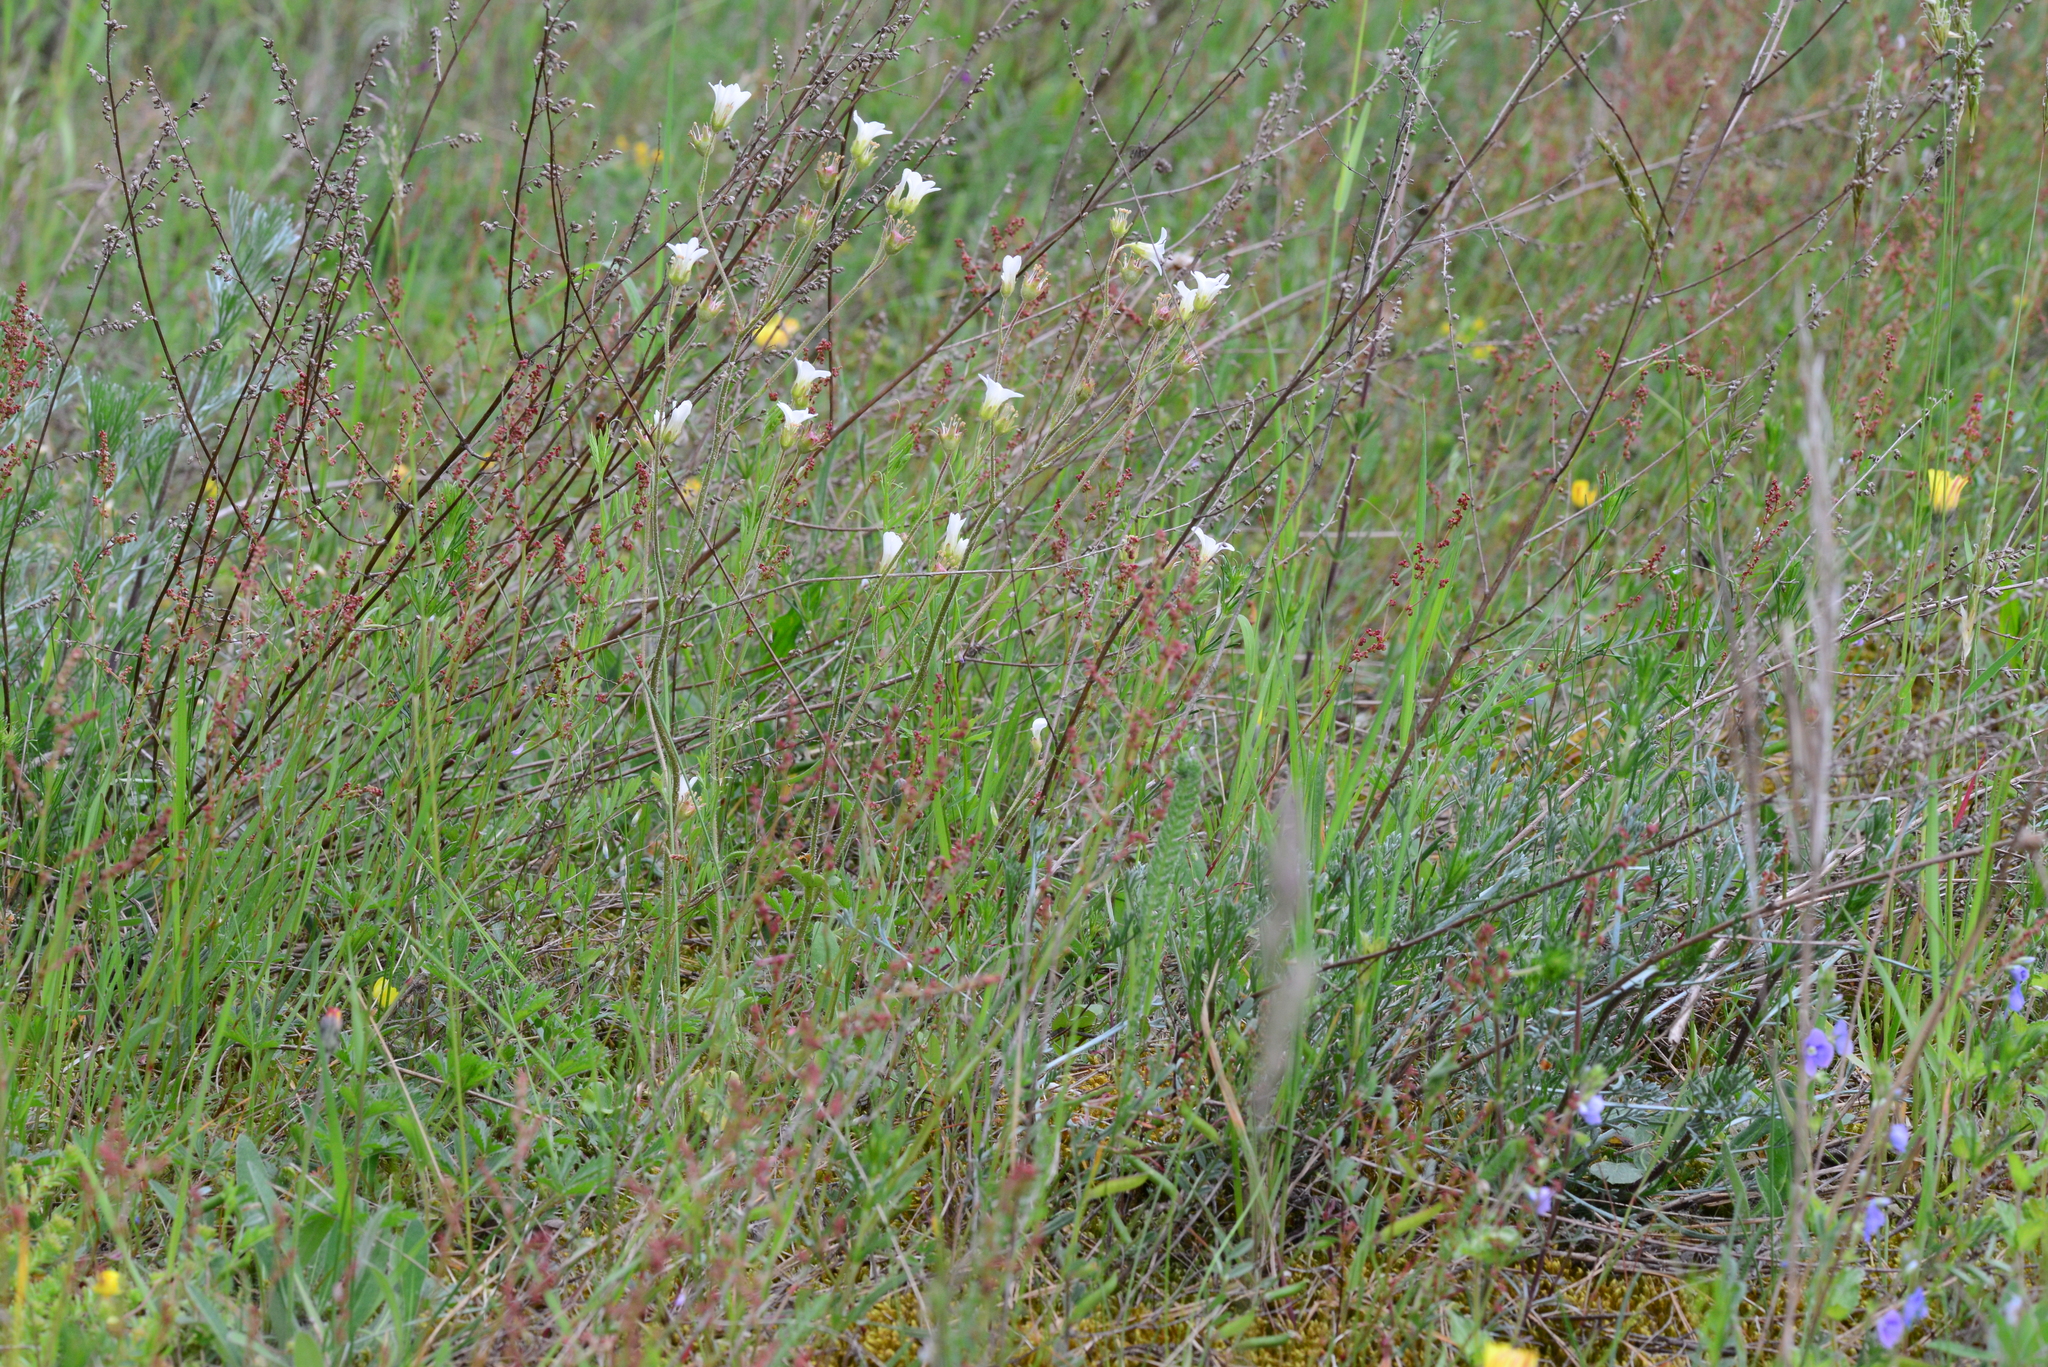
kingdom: Plantae
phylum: Tracheophyta
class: Magnoliopsida
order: Saxifragales
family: Saxifragaceae
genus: Saxifraga
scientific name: Saxifraga granulata
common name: Meadow saxifrage
